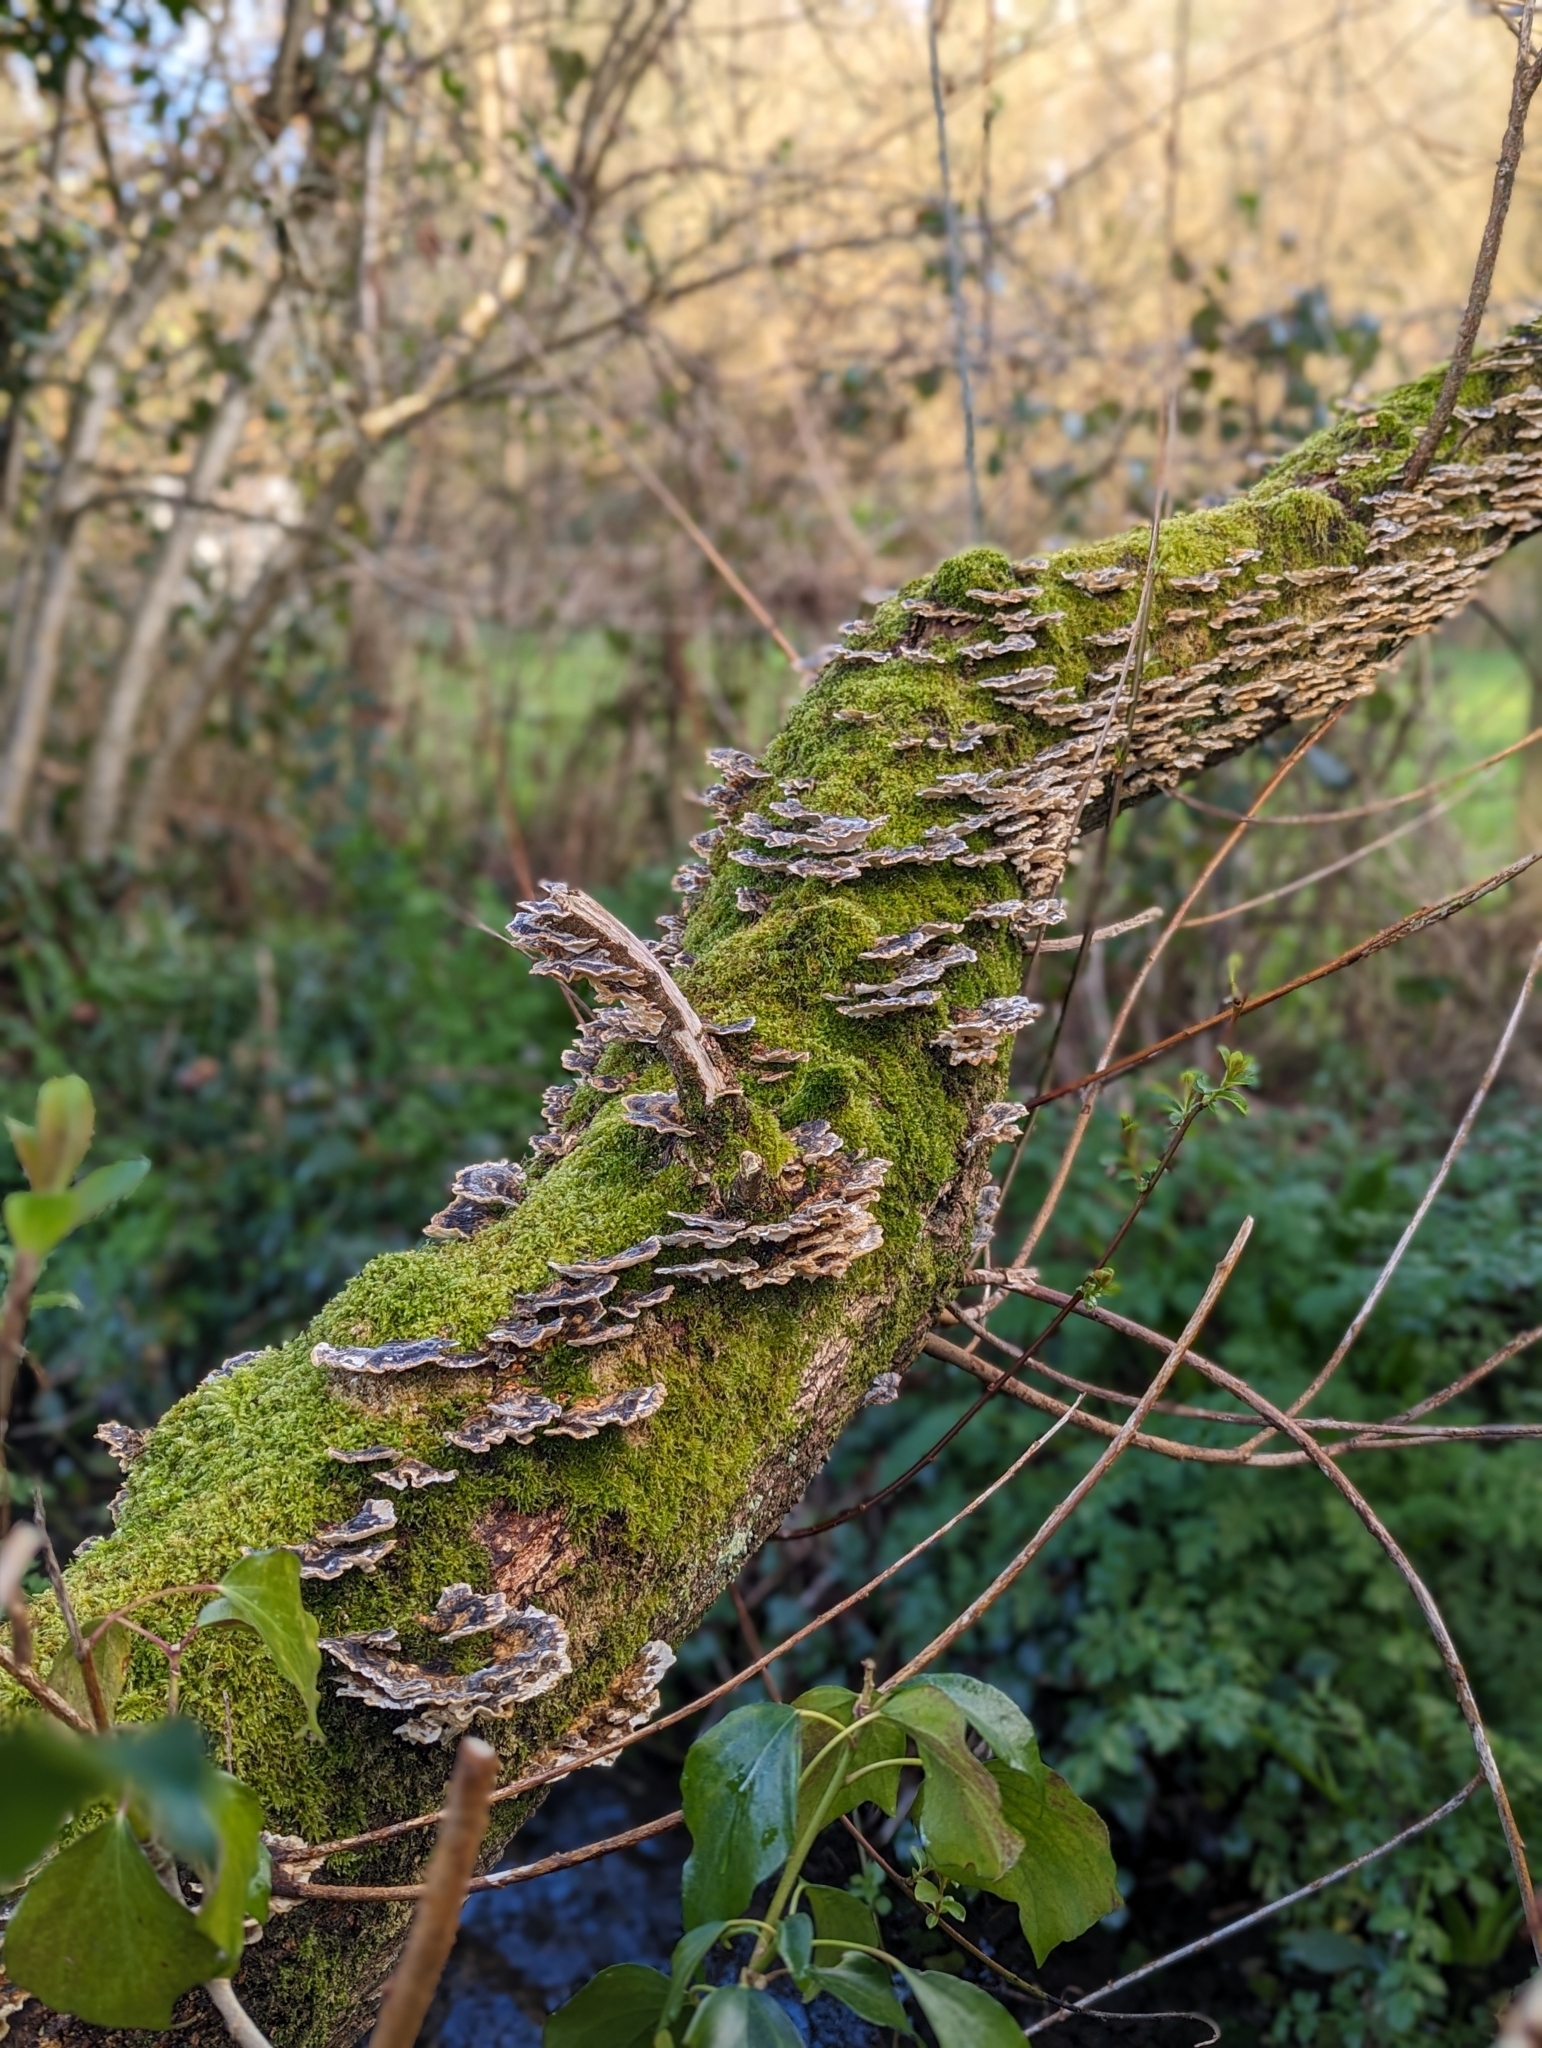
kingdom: Fungi
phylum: Basidiomycota
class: Agaricomycetes
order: Polyporales
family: Polyporaceae
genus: Trametes
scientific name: Trametes versicolor
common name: Turkeytail
